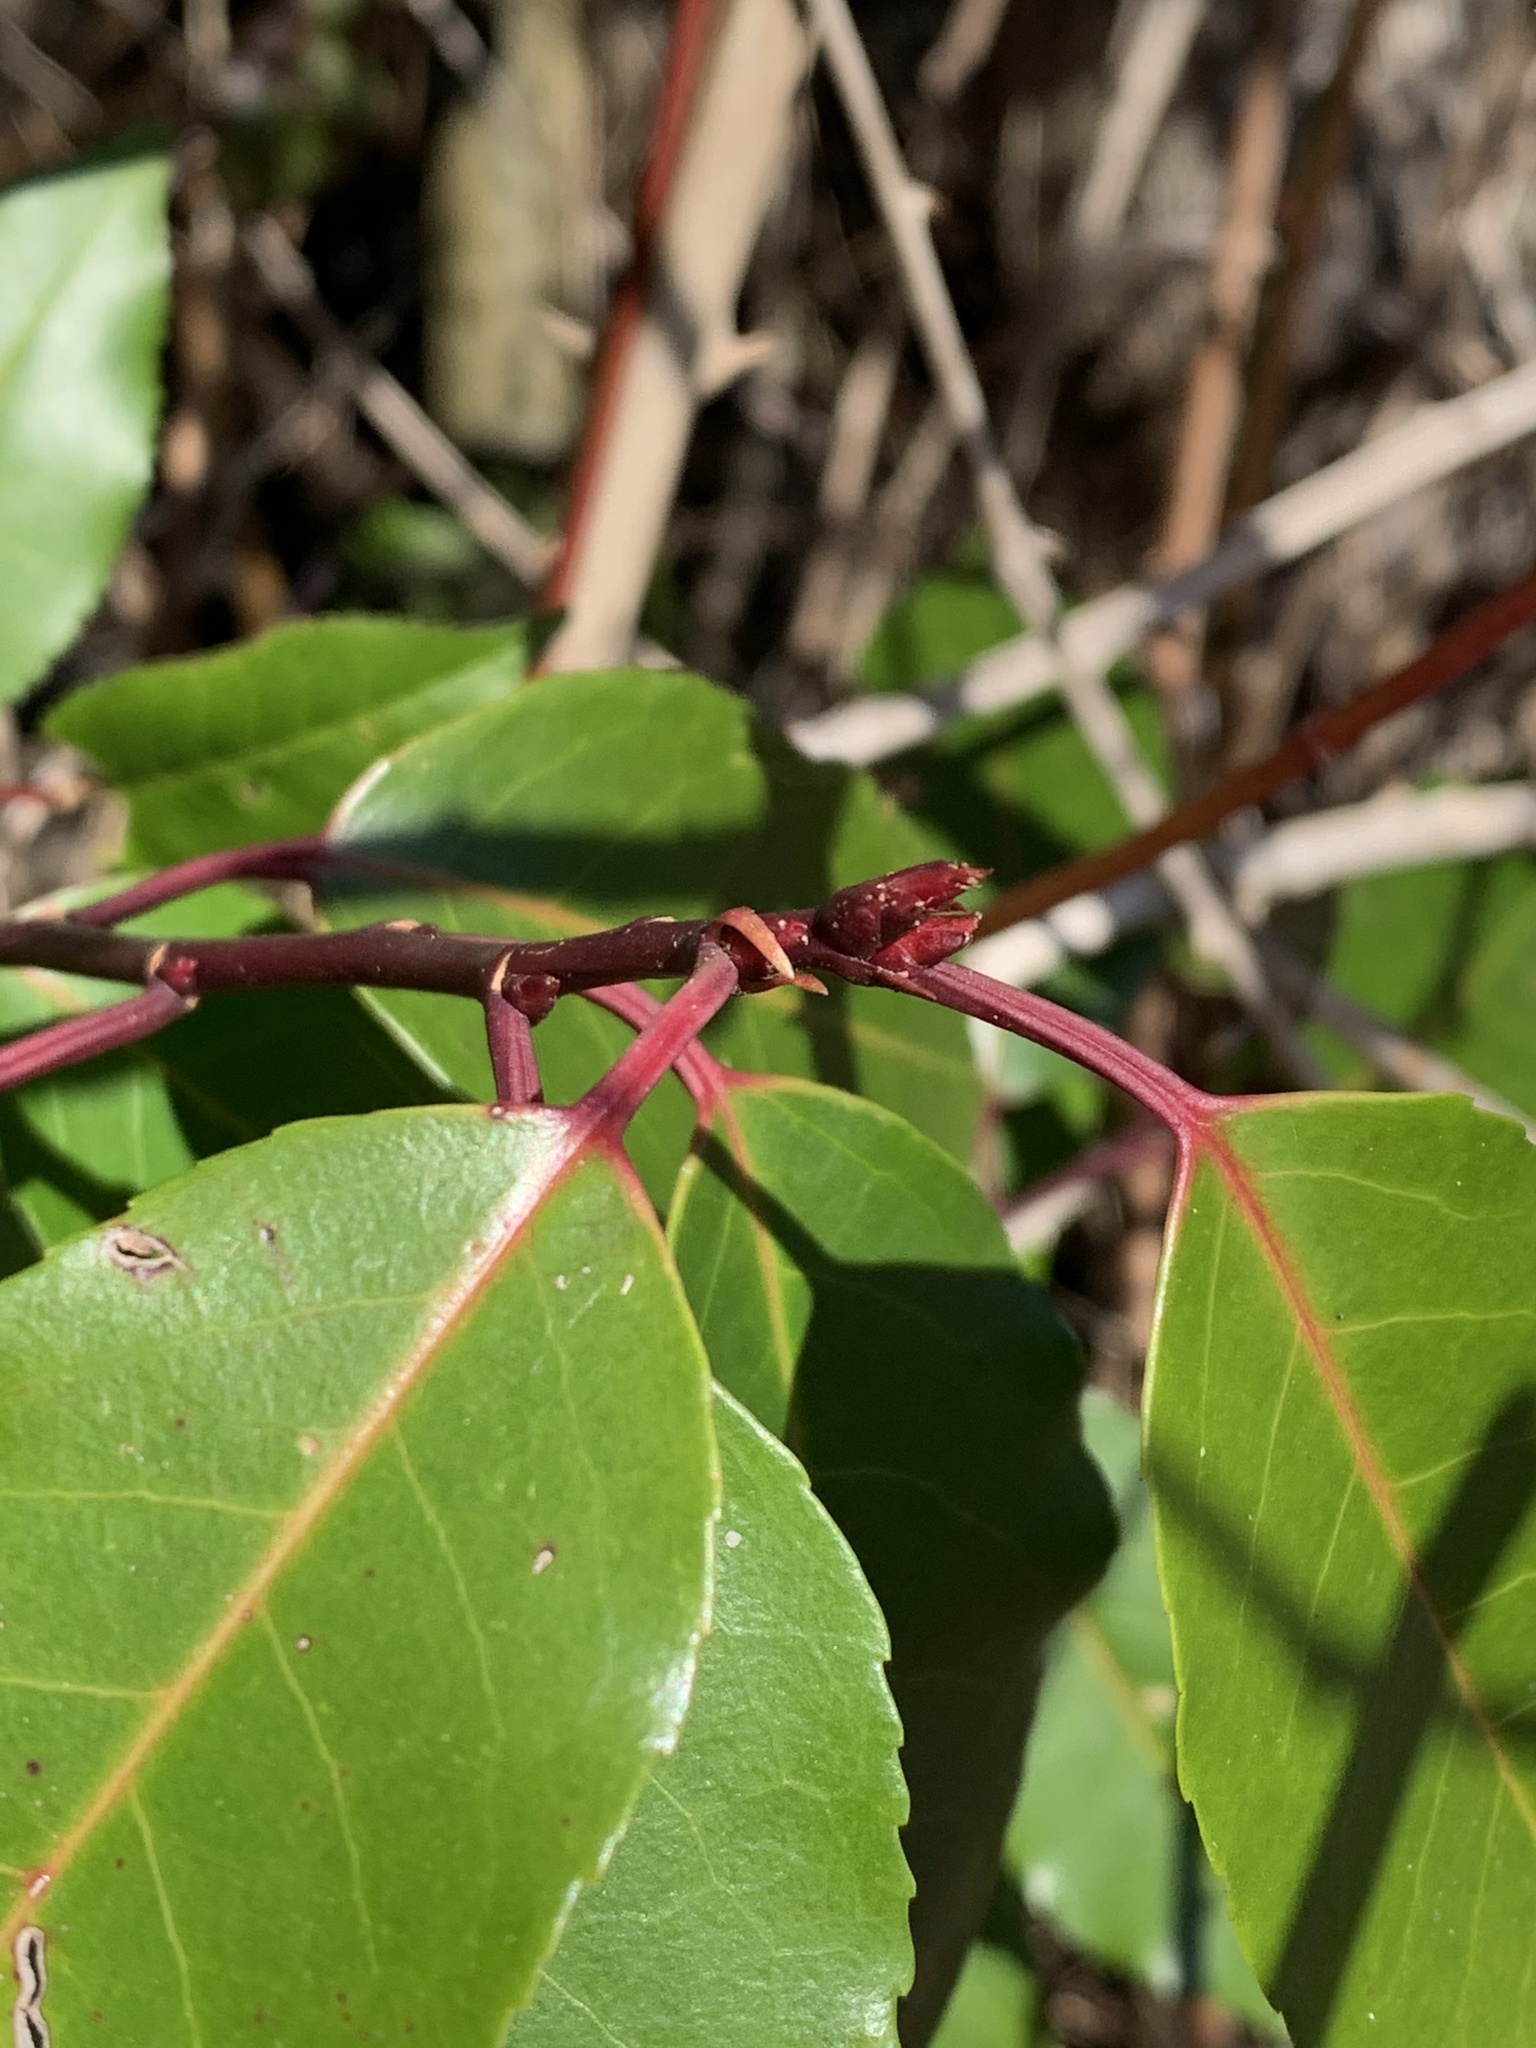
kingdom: Plantae
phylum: Tracheophyta
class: Magnoliopsida
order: Rosales
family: Rosaceae
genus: Prunus
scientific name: Prunus lusitanica
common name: Portugal laurel
